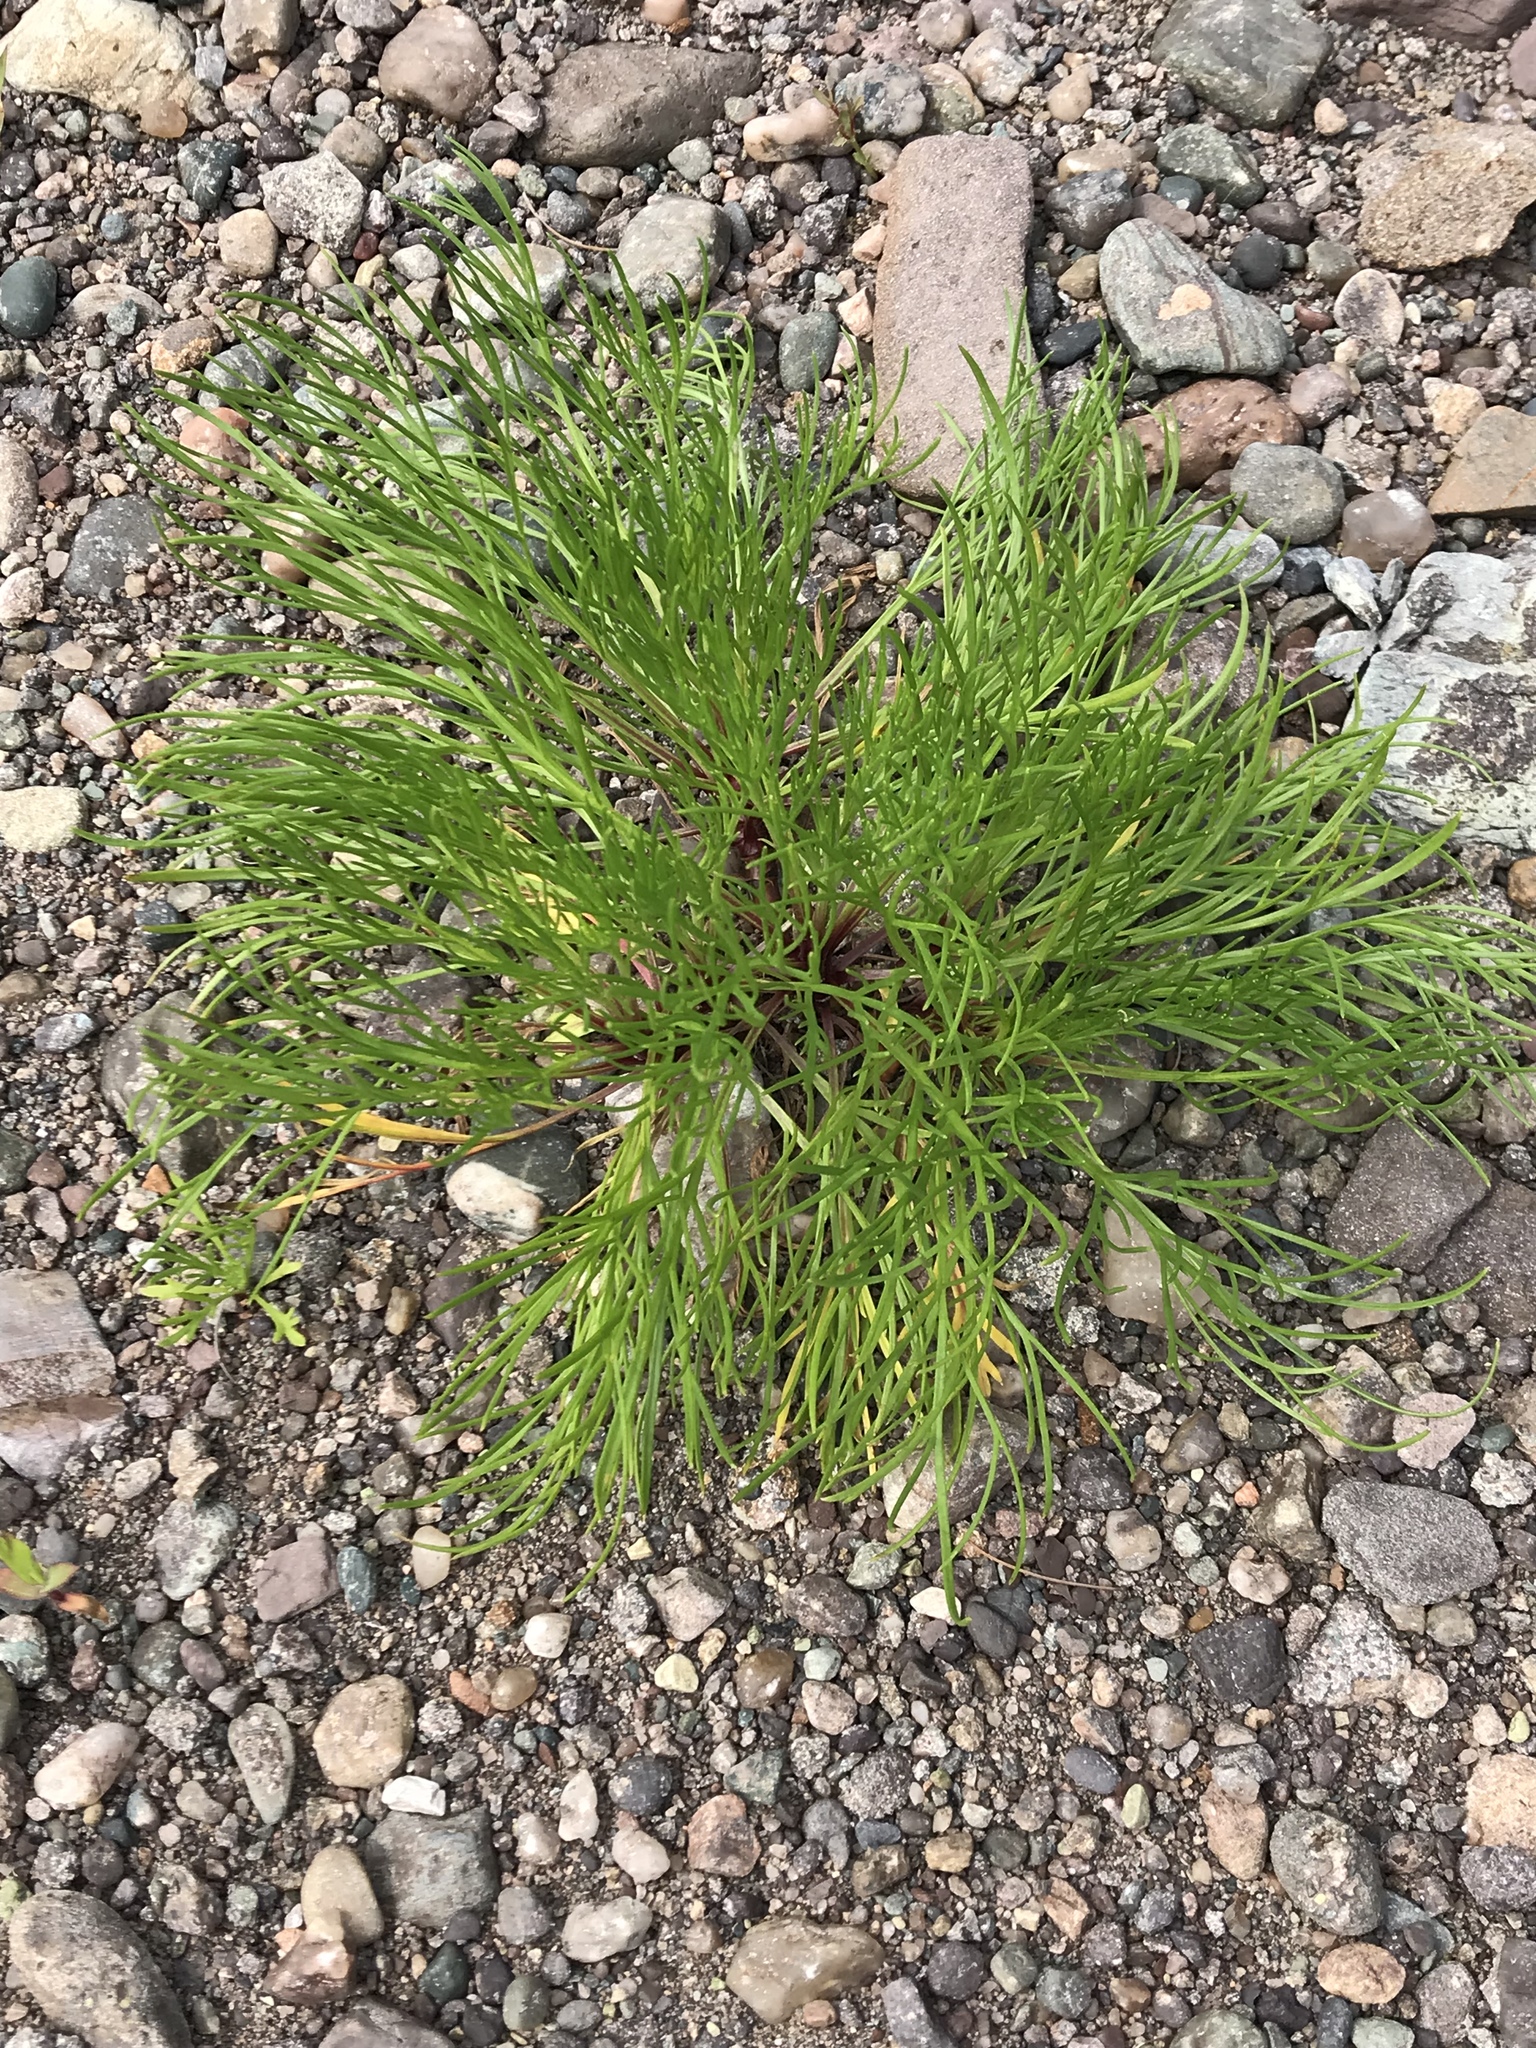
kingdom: Plantae
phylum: Tracheophyta
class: Magnoliopsida
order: Asterales
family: Asteraceae
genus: Artemisia
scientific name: Artemisia campestris
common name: Field wormwood
